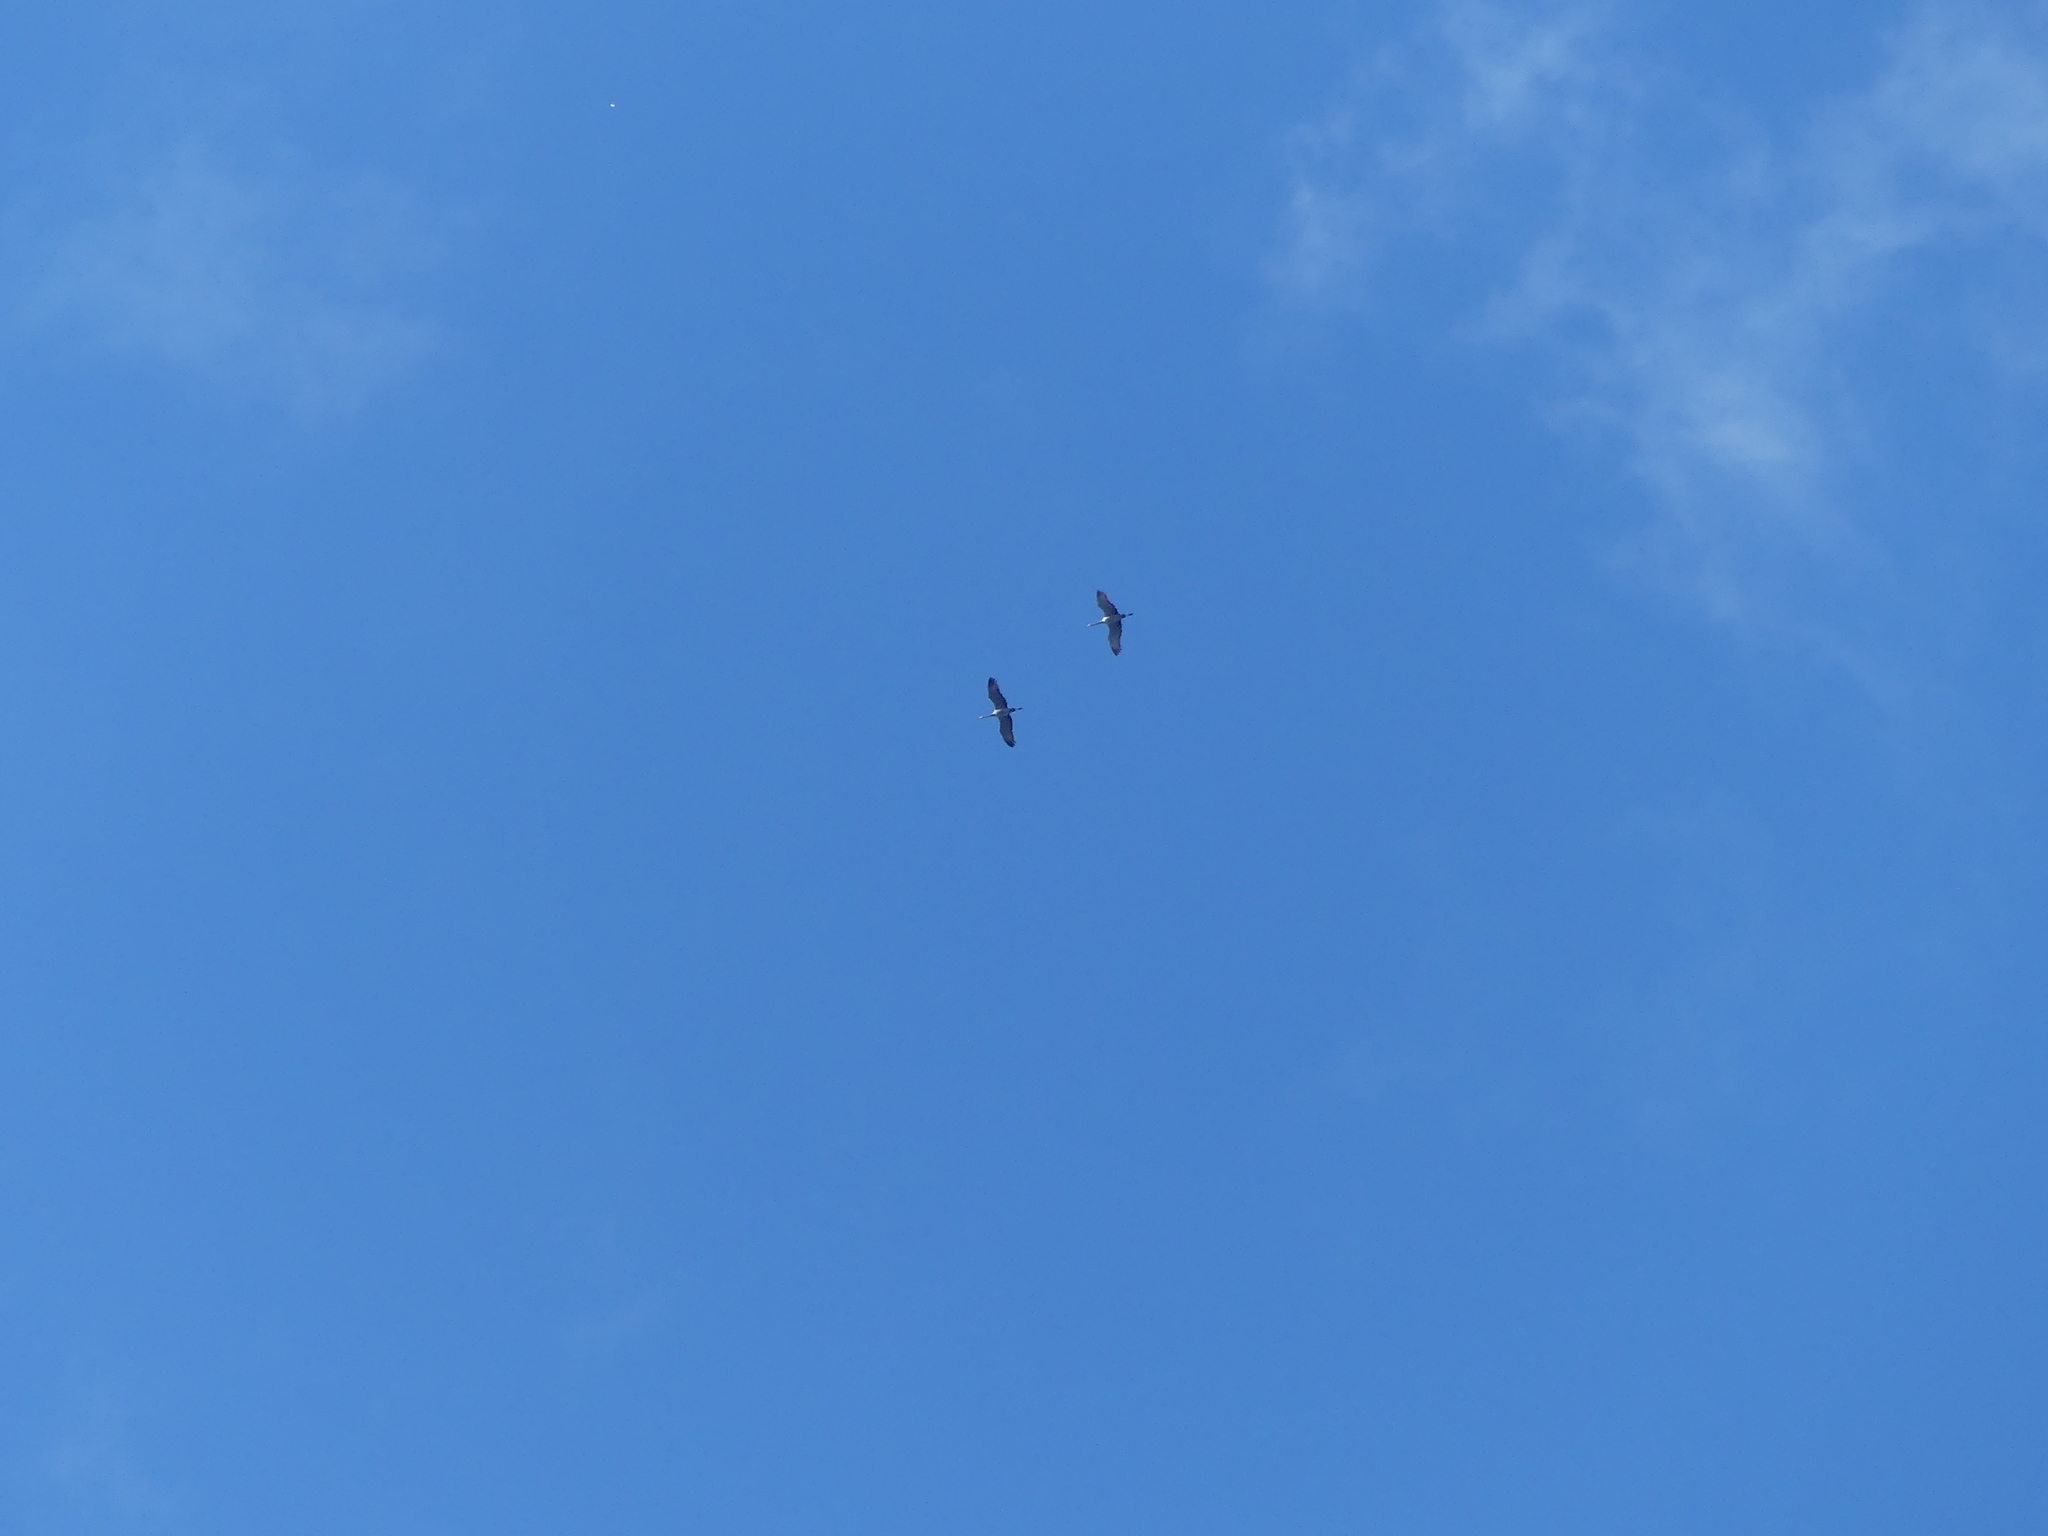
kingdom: Animalia
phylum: Chordata
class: Aves
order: Gruiformes
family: Gruidae
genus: Grus
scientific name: Grus canadensis
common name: Sandhill crane
